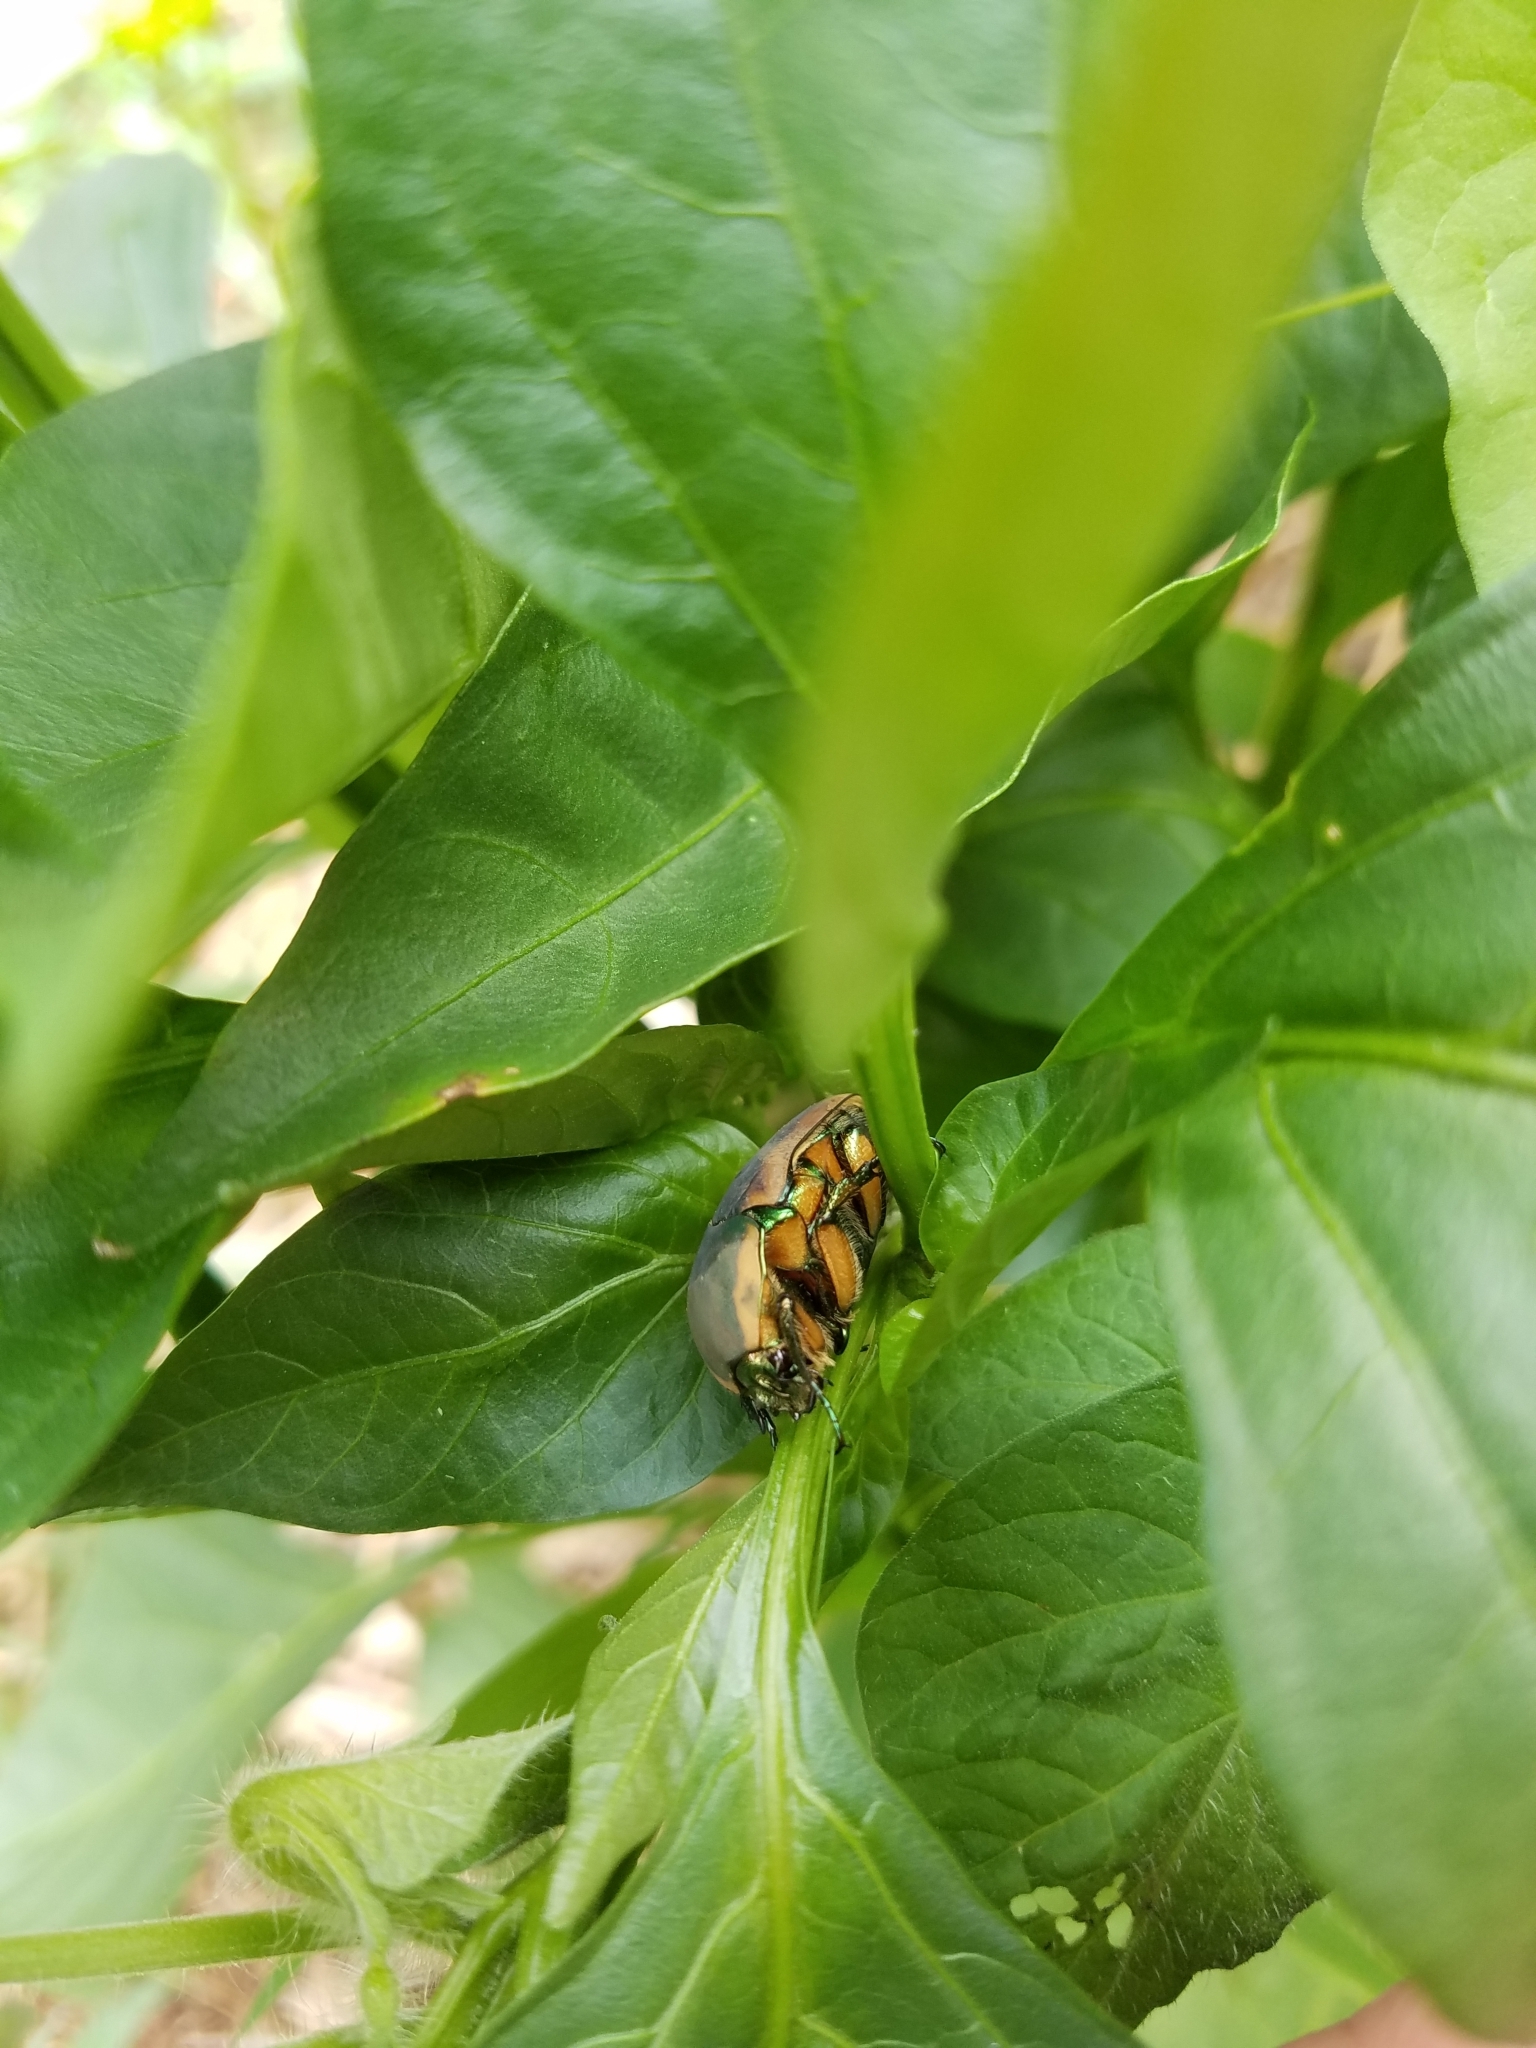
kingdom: Animalia
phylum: Arthropoda
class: Insecta
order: Coleoptera
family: Scarabaeidae
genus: Cotinis
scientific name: Cotinis nitida
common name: Common green june beetle
